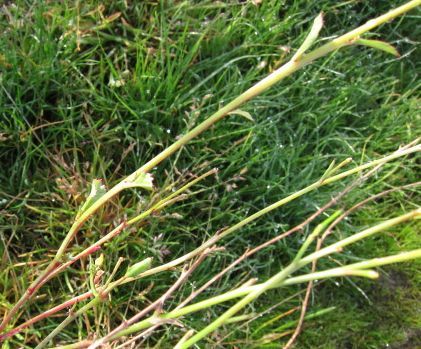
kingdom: Plantae
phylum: Tracheophyta
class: Magnoliopsida
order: Brassicales
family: Brassicaceae
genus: Raphanus
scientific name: Raphanus sativus
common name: Cultivated radish
